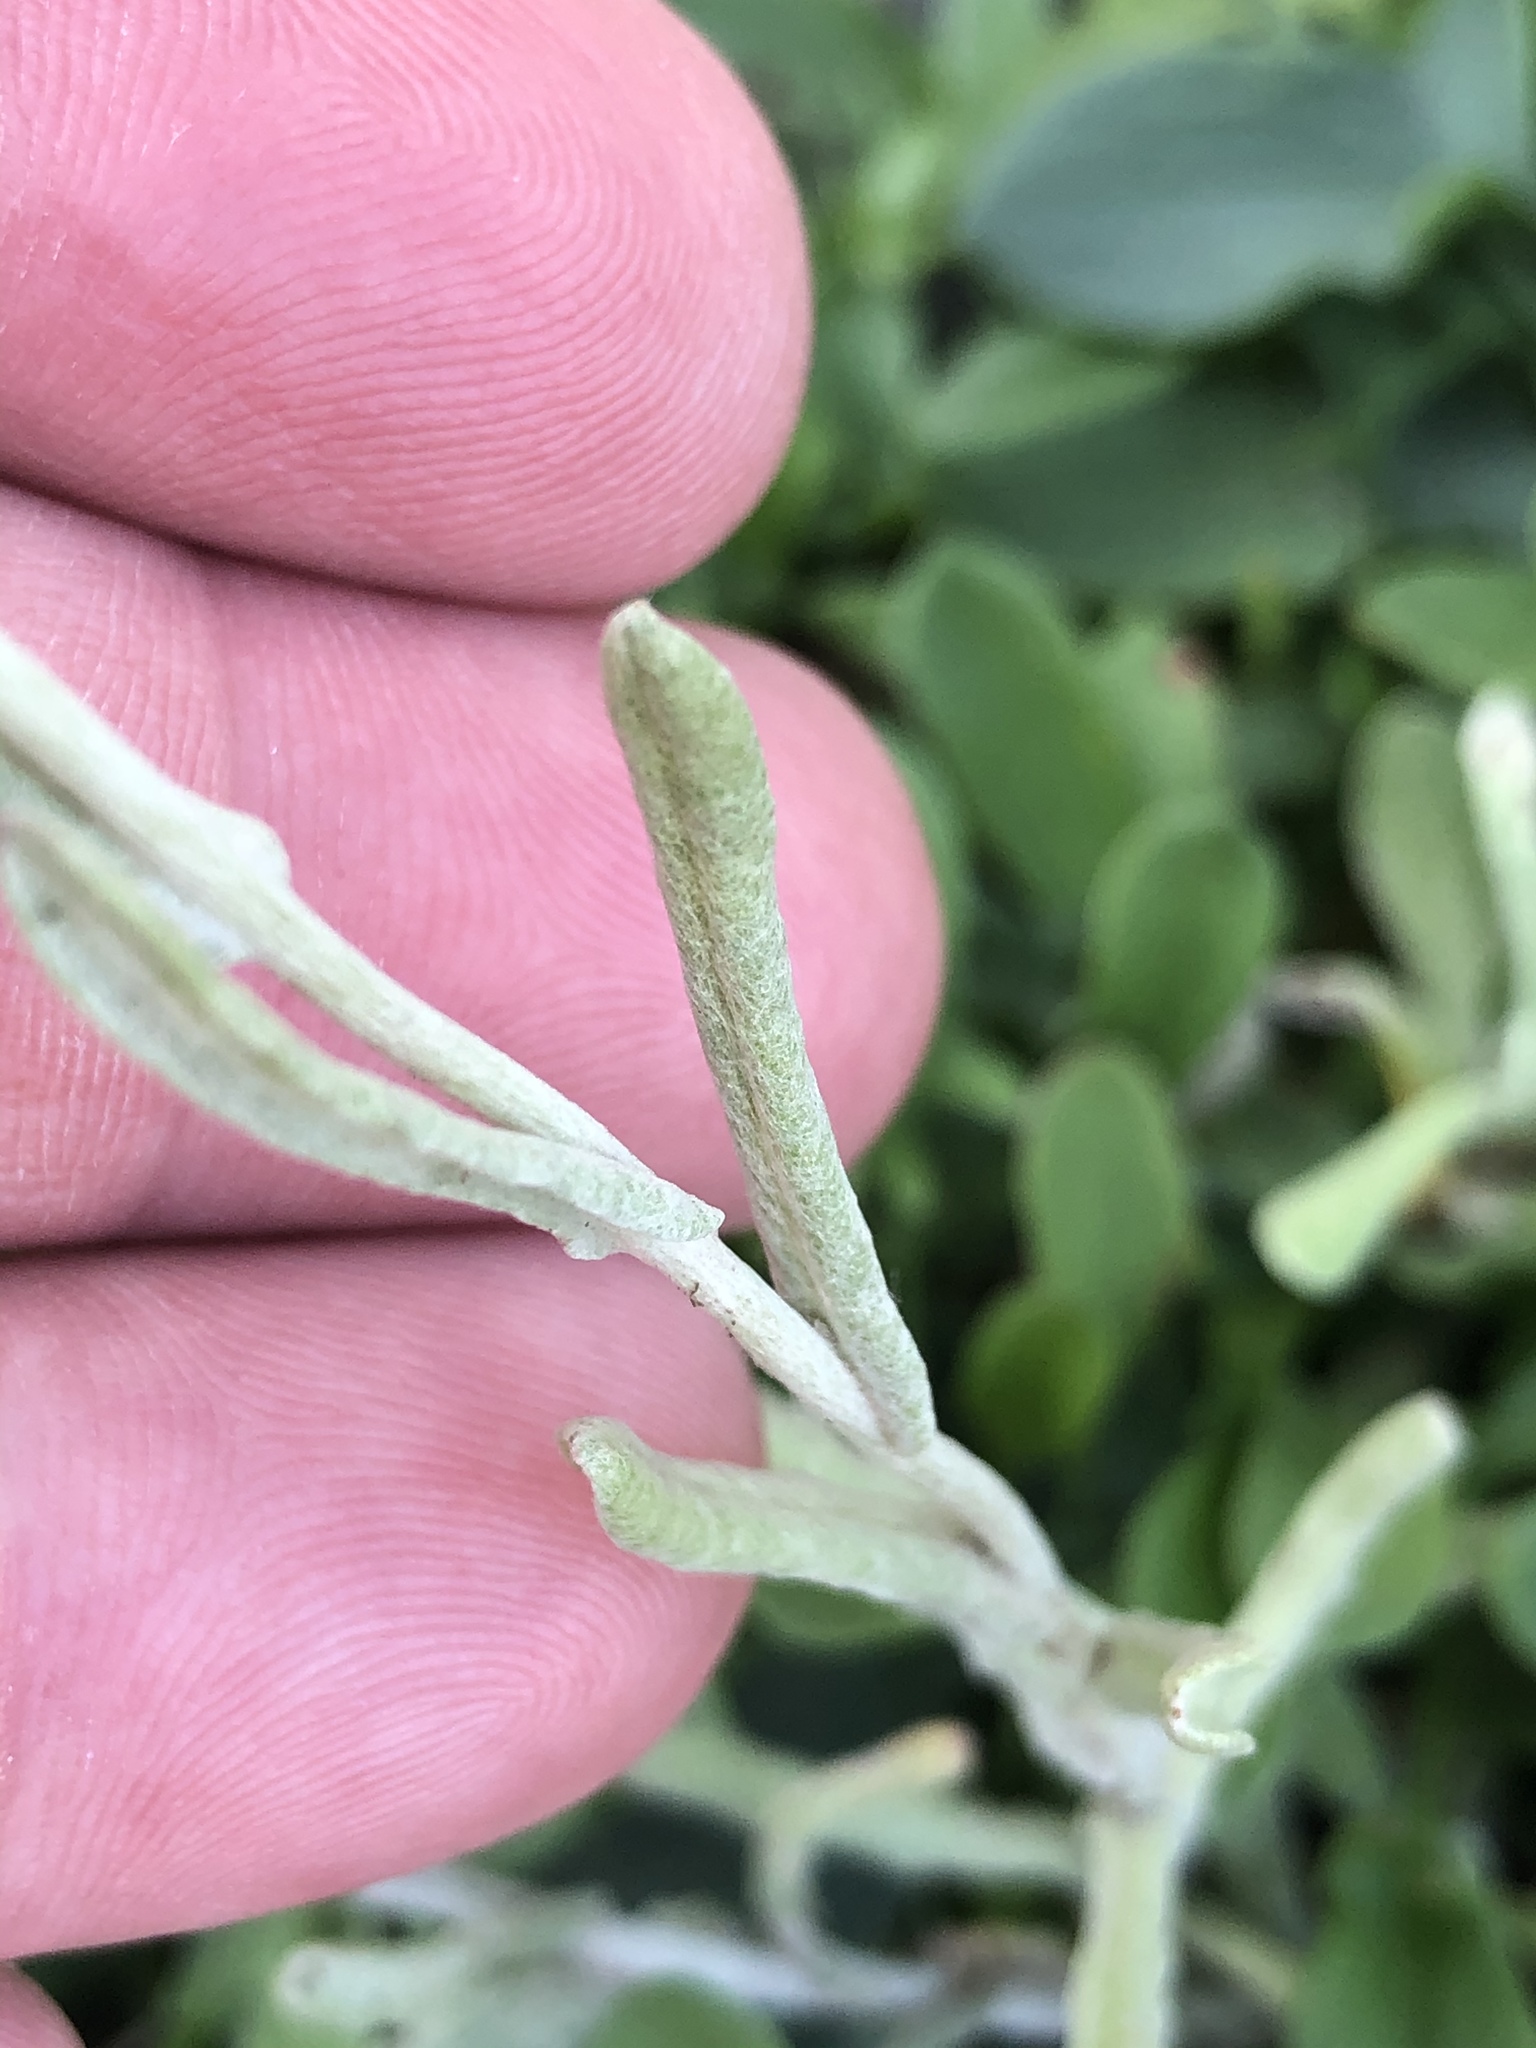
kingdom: Plantae
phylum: Tracheophyta
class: Magnoliopsida
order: Asterales
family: Asteraceae
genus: Helichrysum
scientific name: Helichrysum luteoalbum
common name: Daisy
